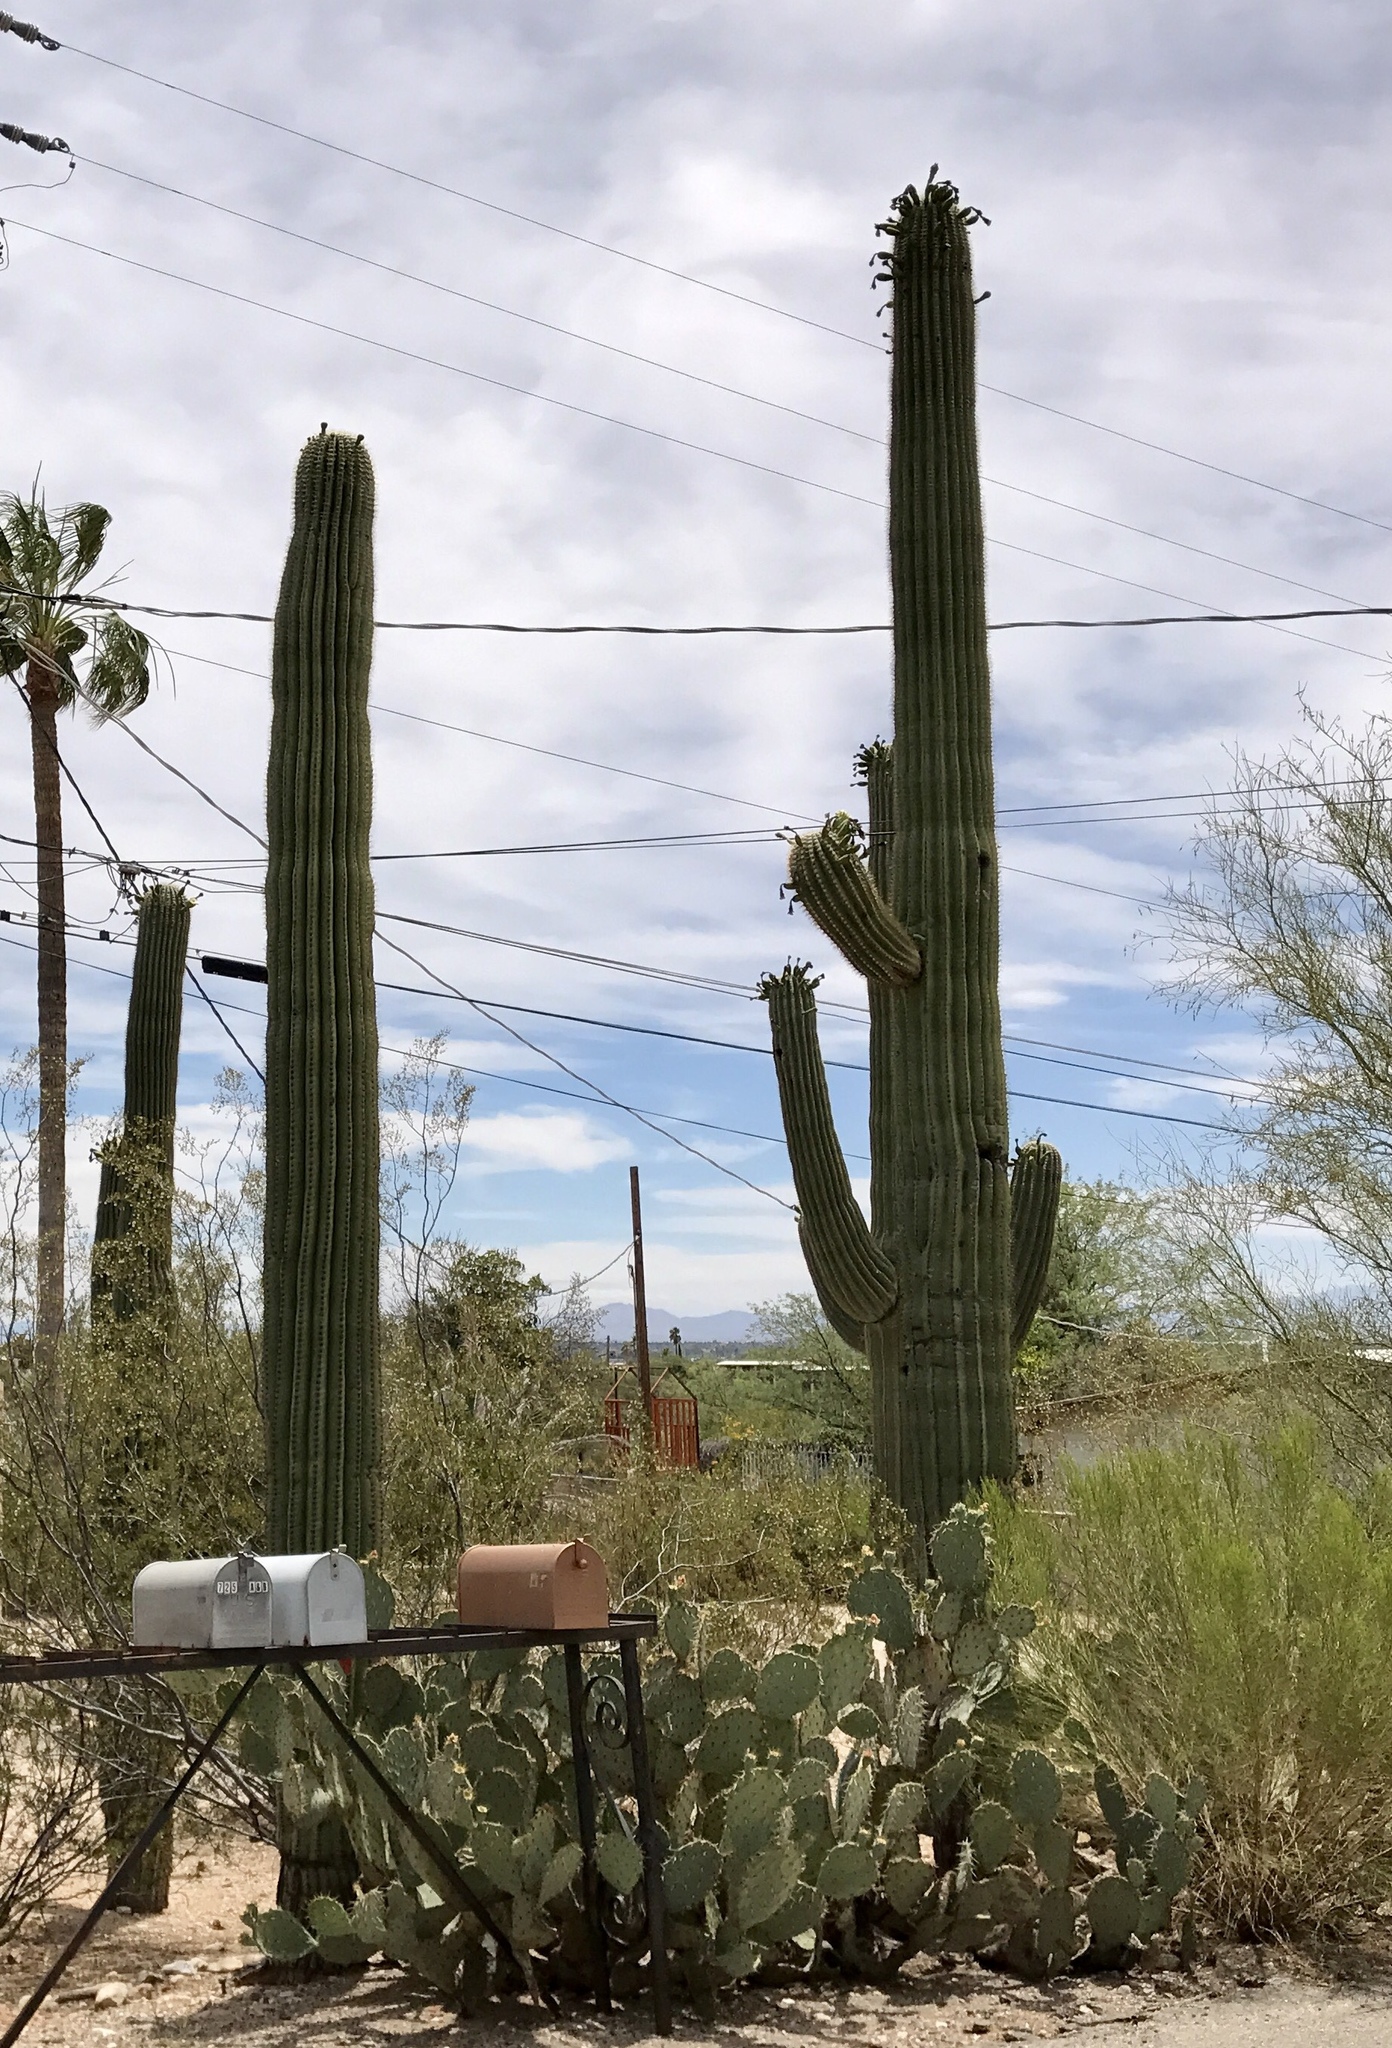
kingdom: Plantae
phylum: Tracheophyta
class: Magnoliopsida
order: Caryophyllales
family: Cactaceae
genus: Carnegiea
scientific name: Carnegiea gigantea
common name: Saguaro
